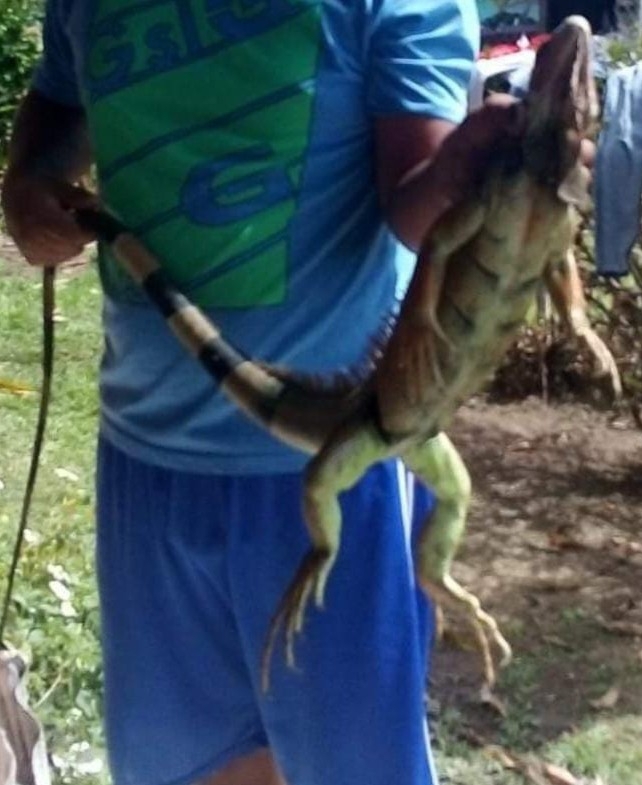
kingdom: Animalia
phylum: Chordata
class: Squamata
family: Iguanidae
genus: Iguana
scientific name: Iguana iguana
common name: Green iguana
